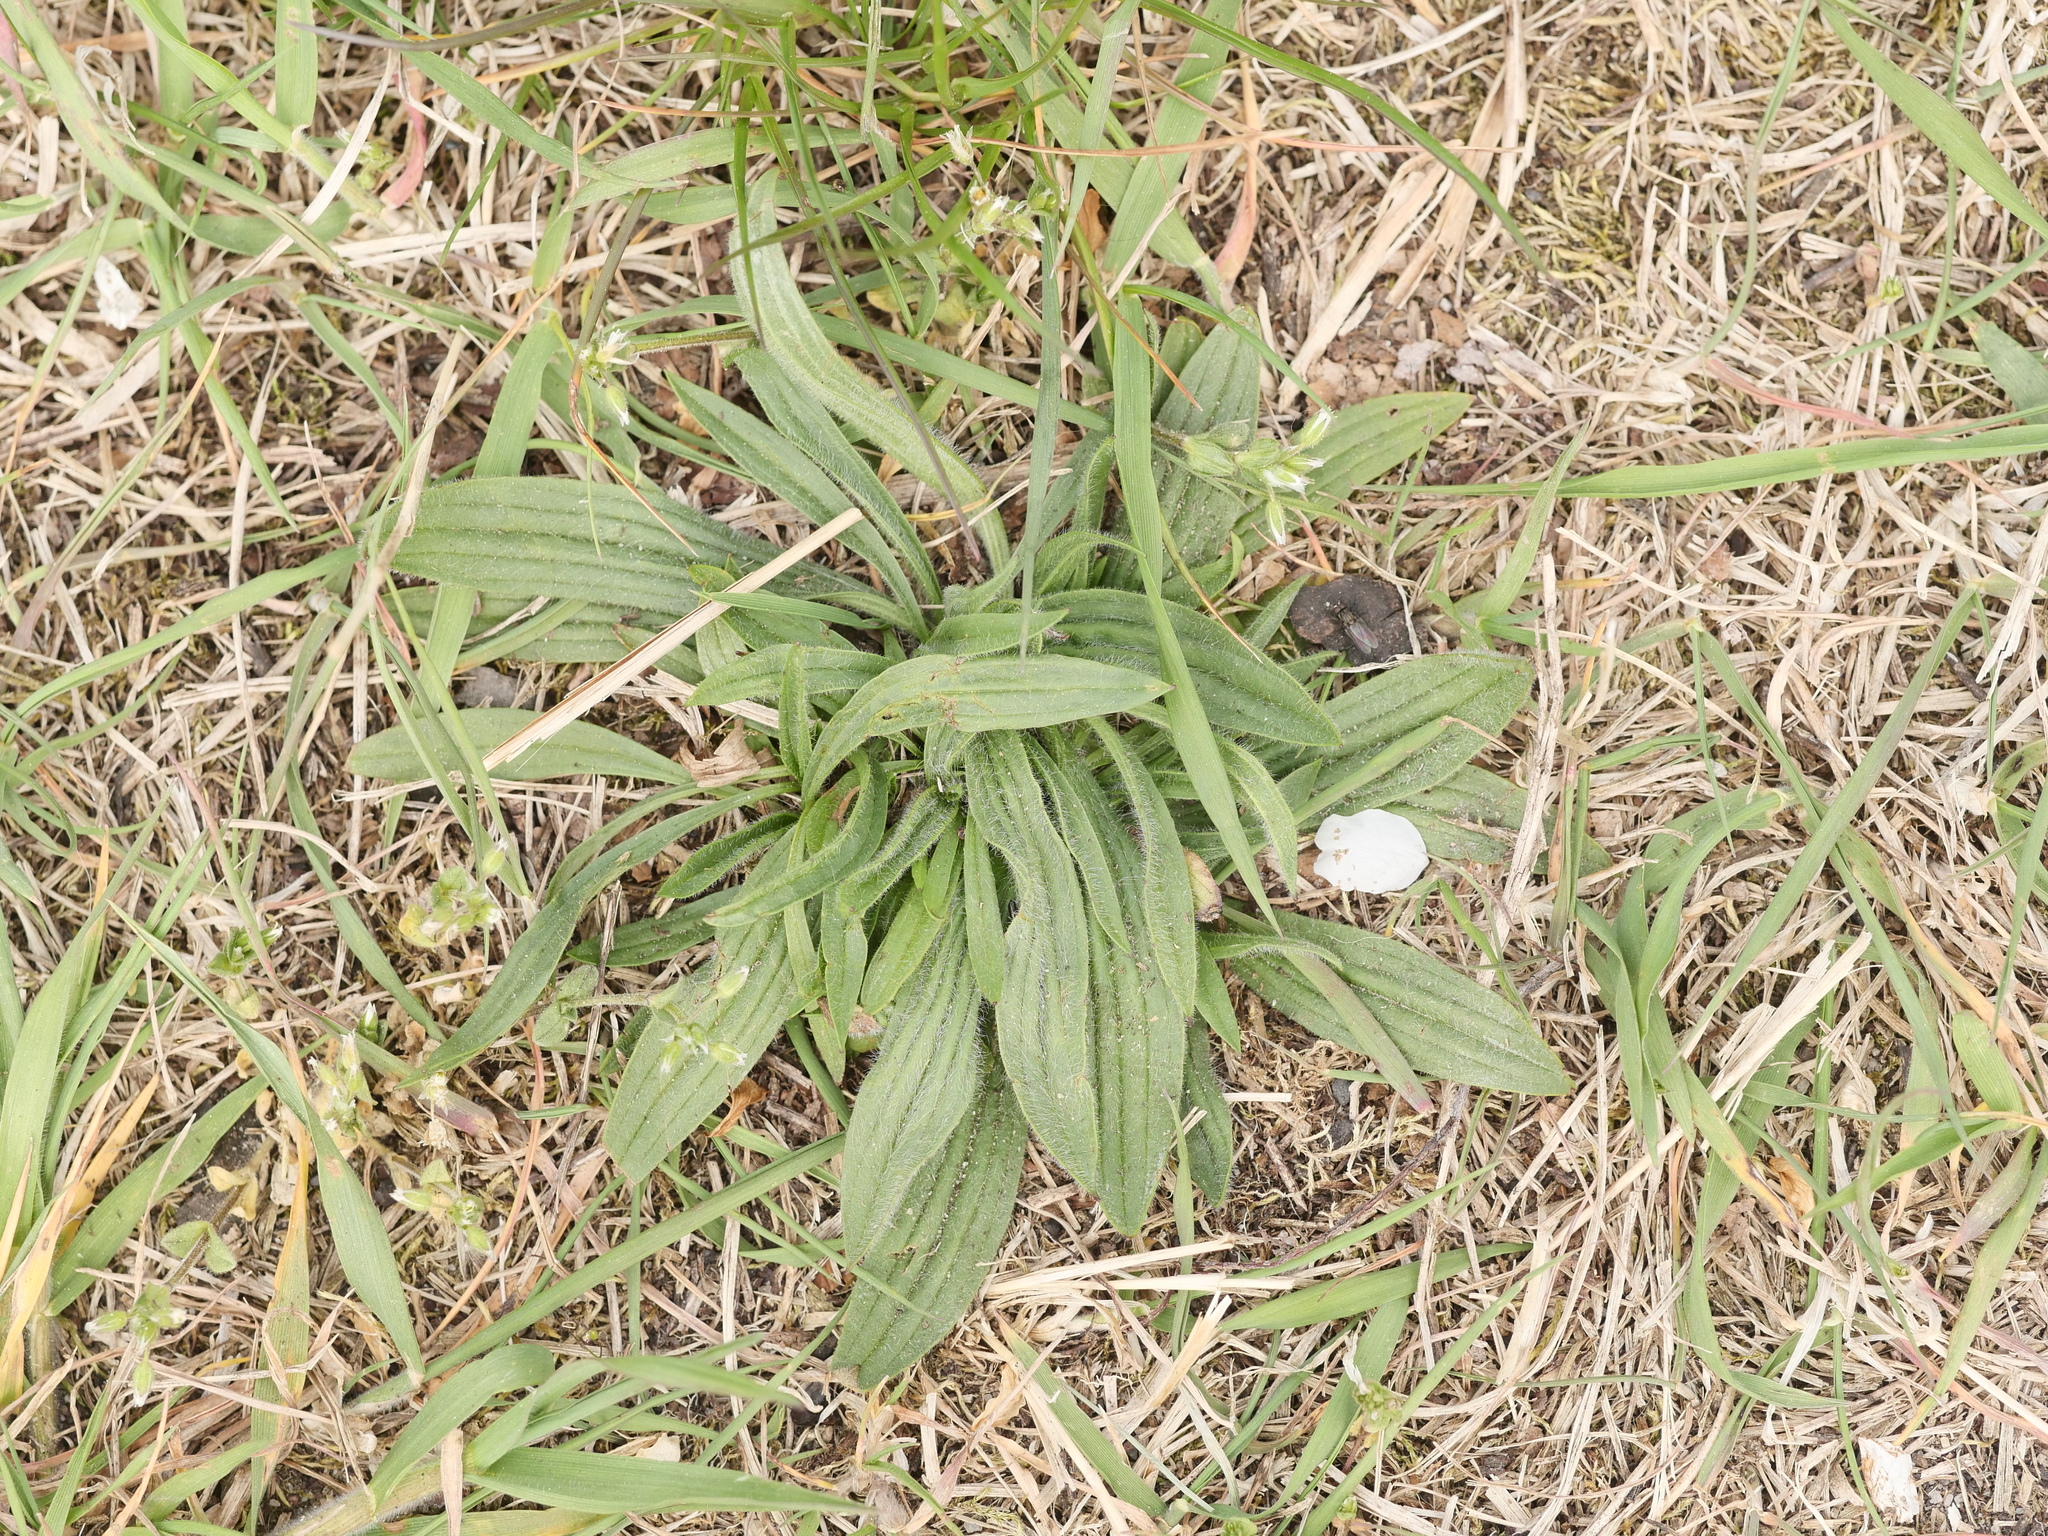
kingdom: Plantae
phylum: Tracheophyta
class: Magnoliopsida
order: Lamiales
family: Plantaginaceae
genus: Plantago
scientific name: Plantago lanceolata
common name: Ribwort plantain
